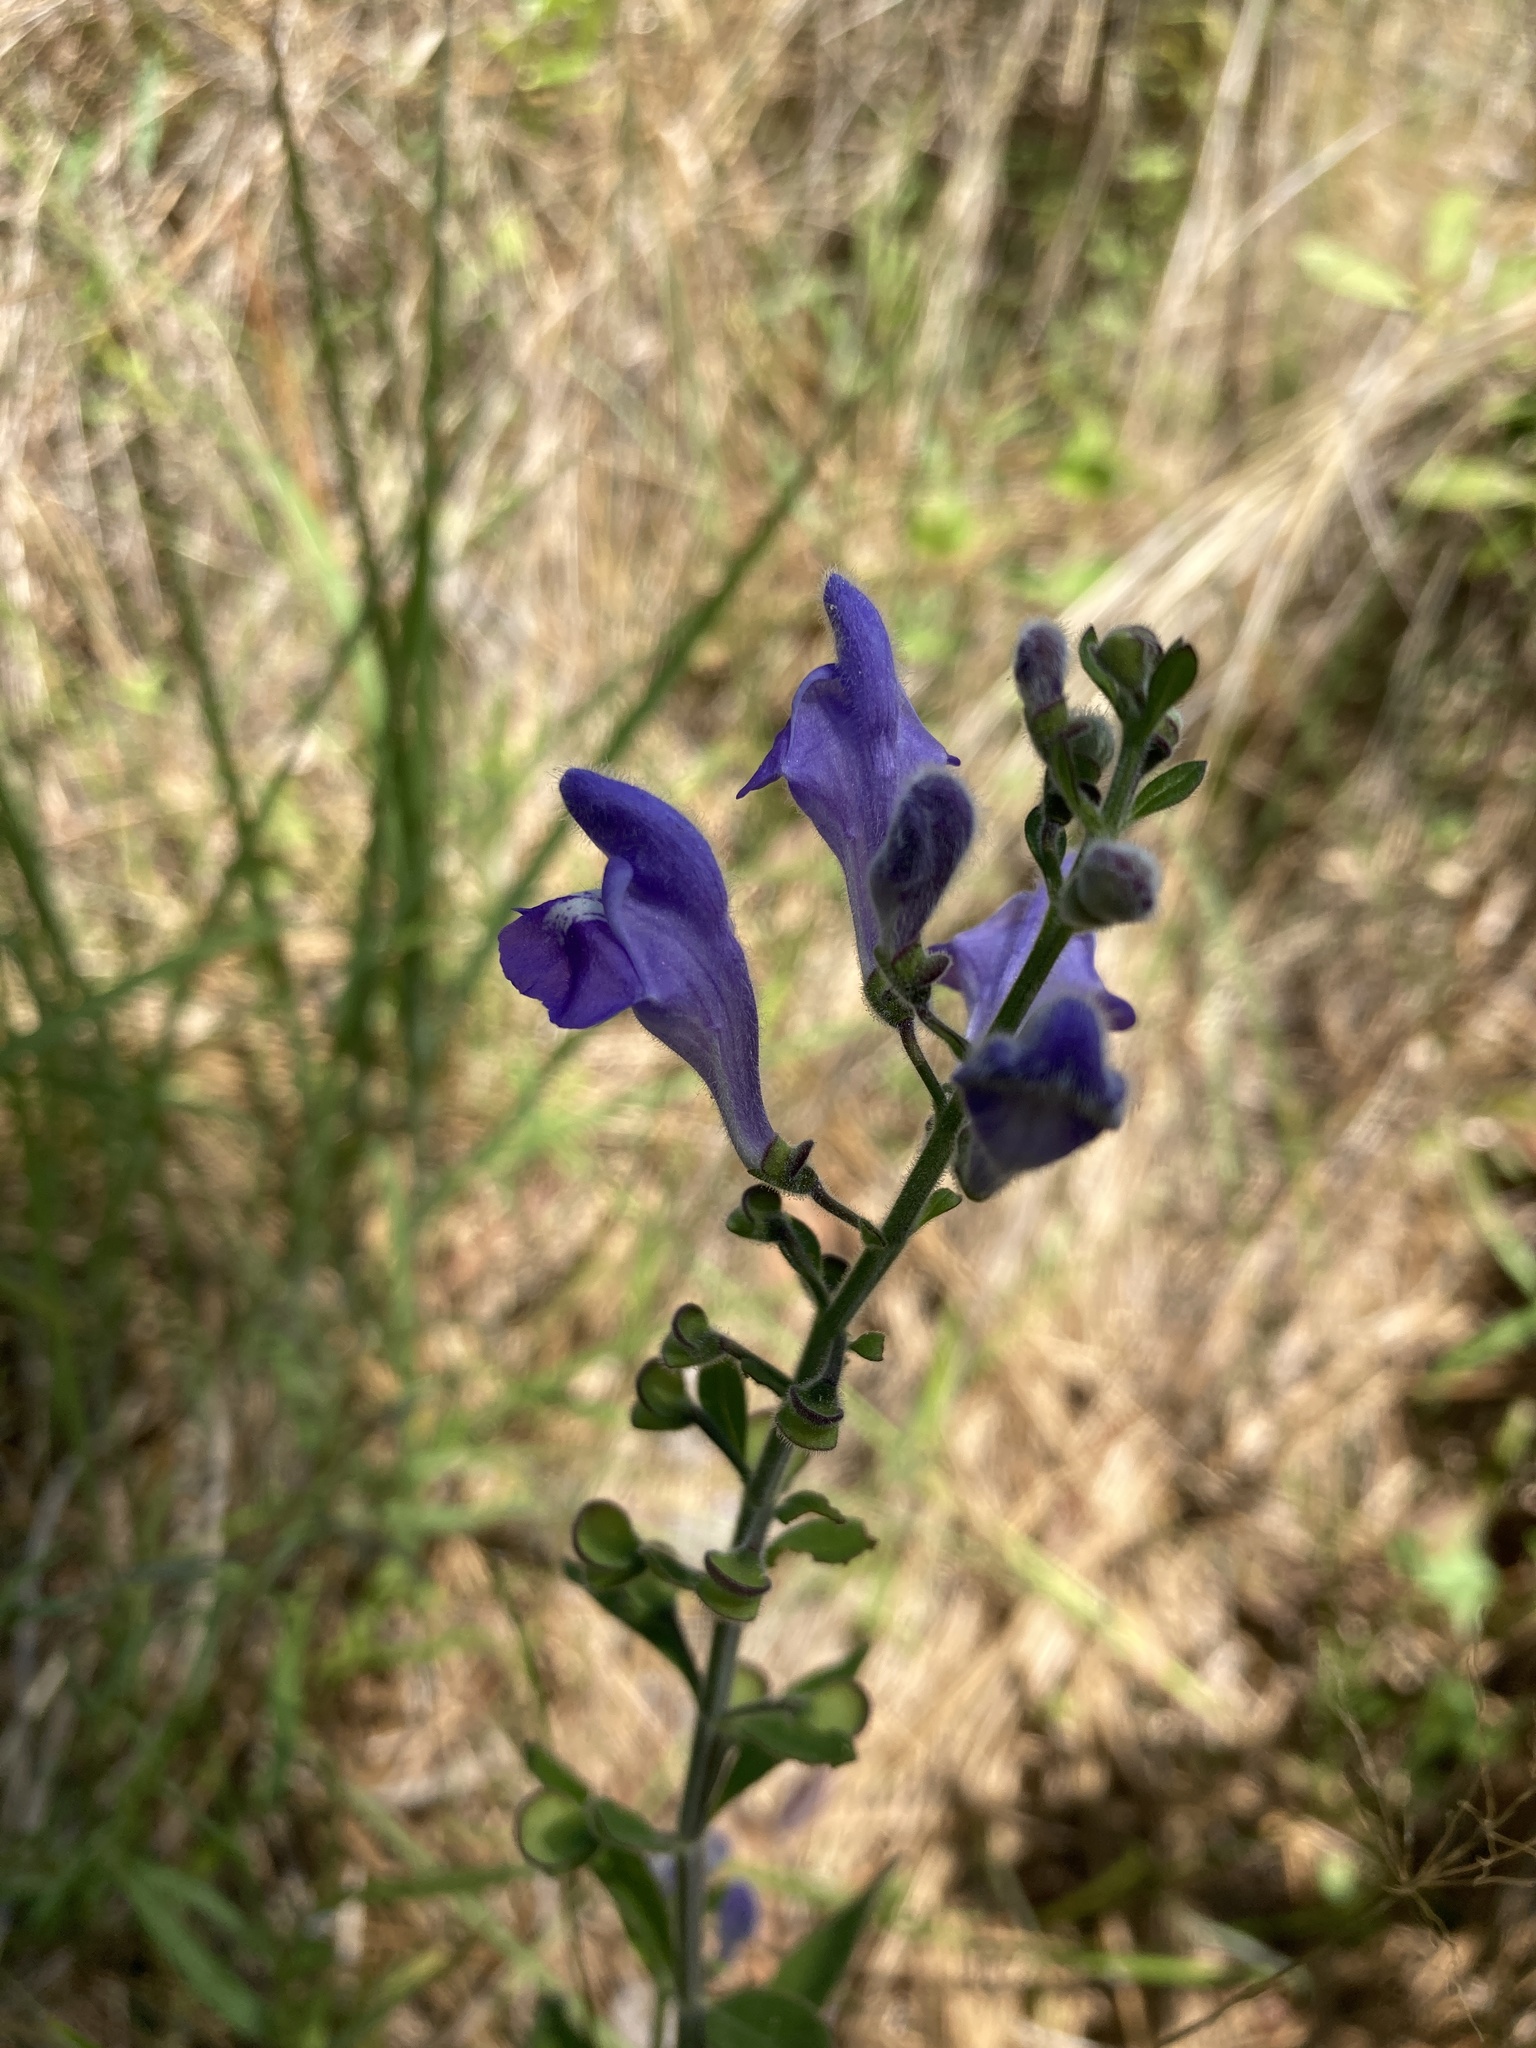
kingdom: Plantae
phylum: Tracheophyta
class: Magnoliopsida
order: Lamiales
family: Lamiaceae
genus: Scutellaria
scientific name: Scutellaria integrifolia
